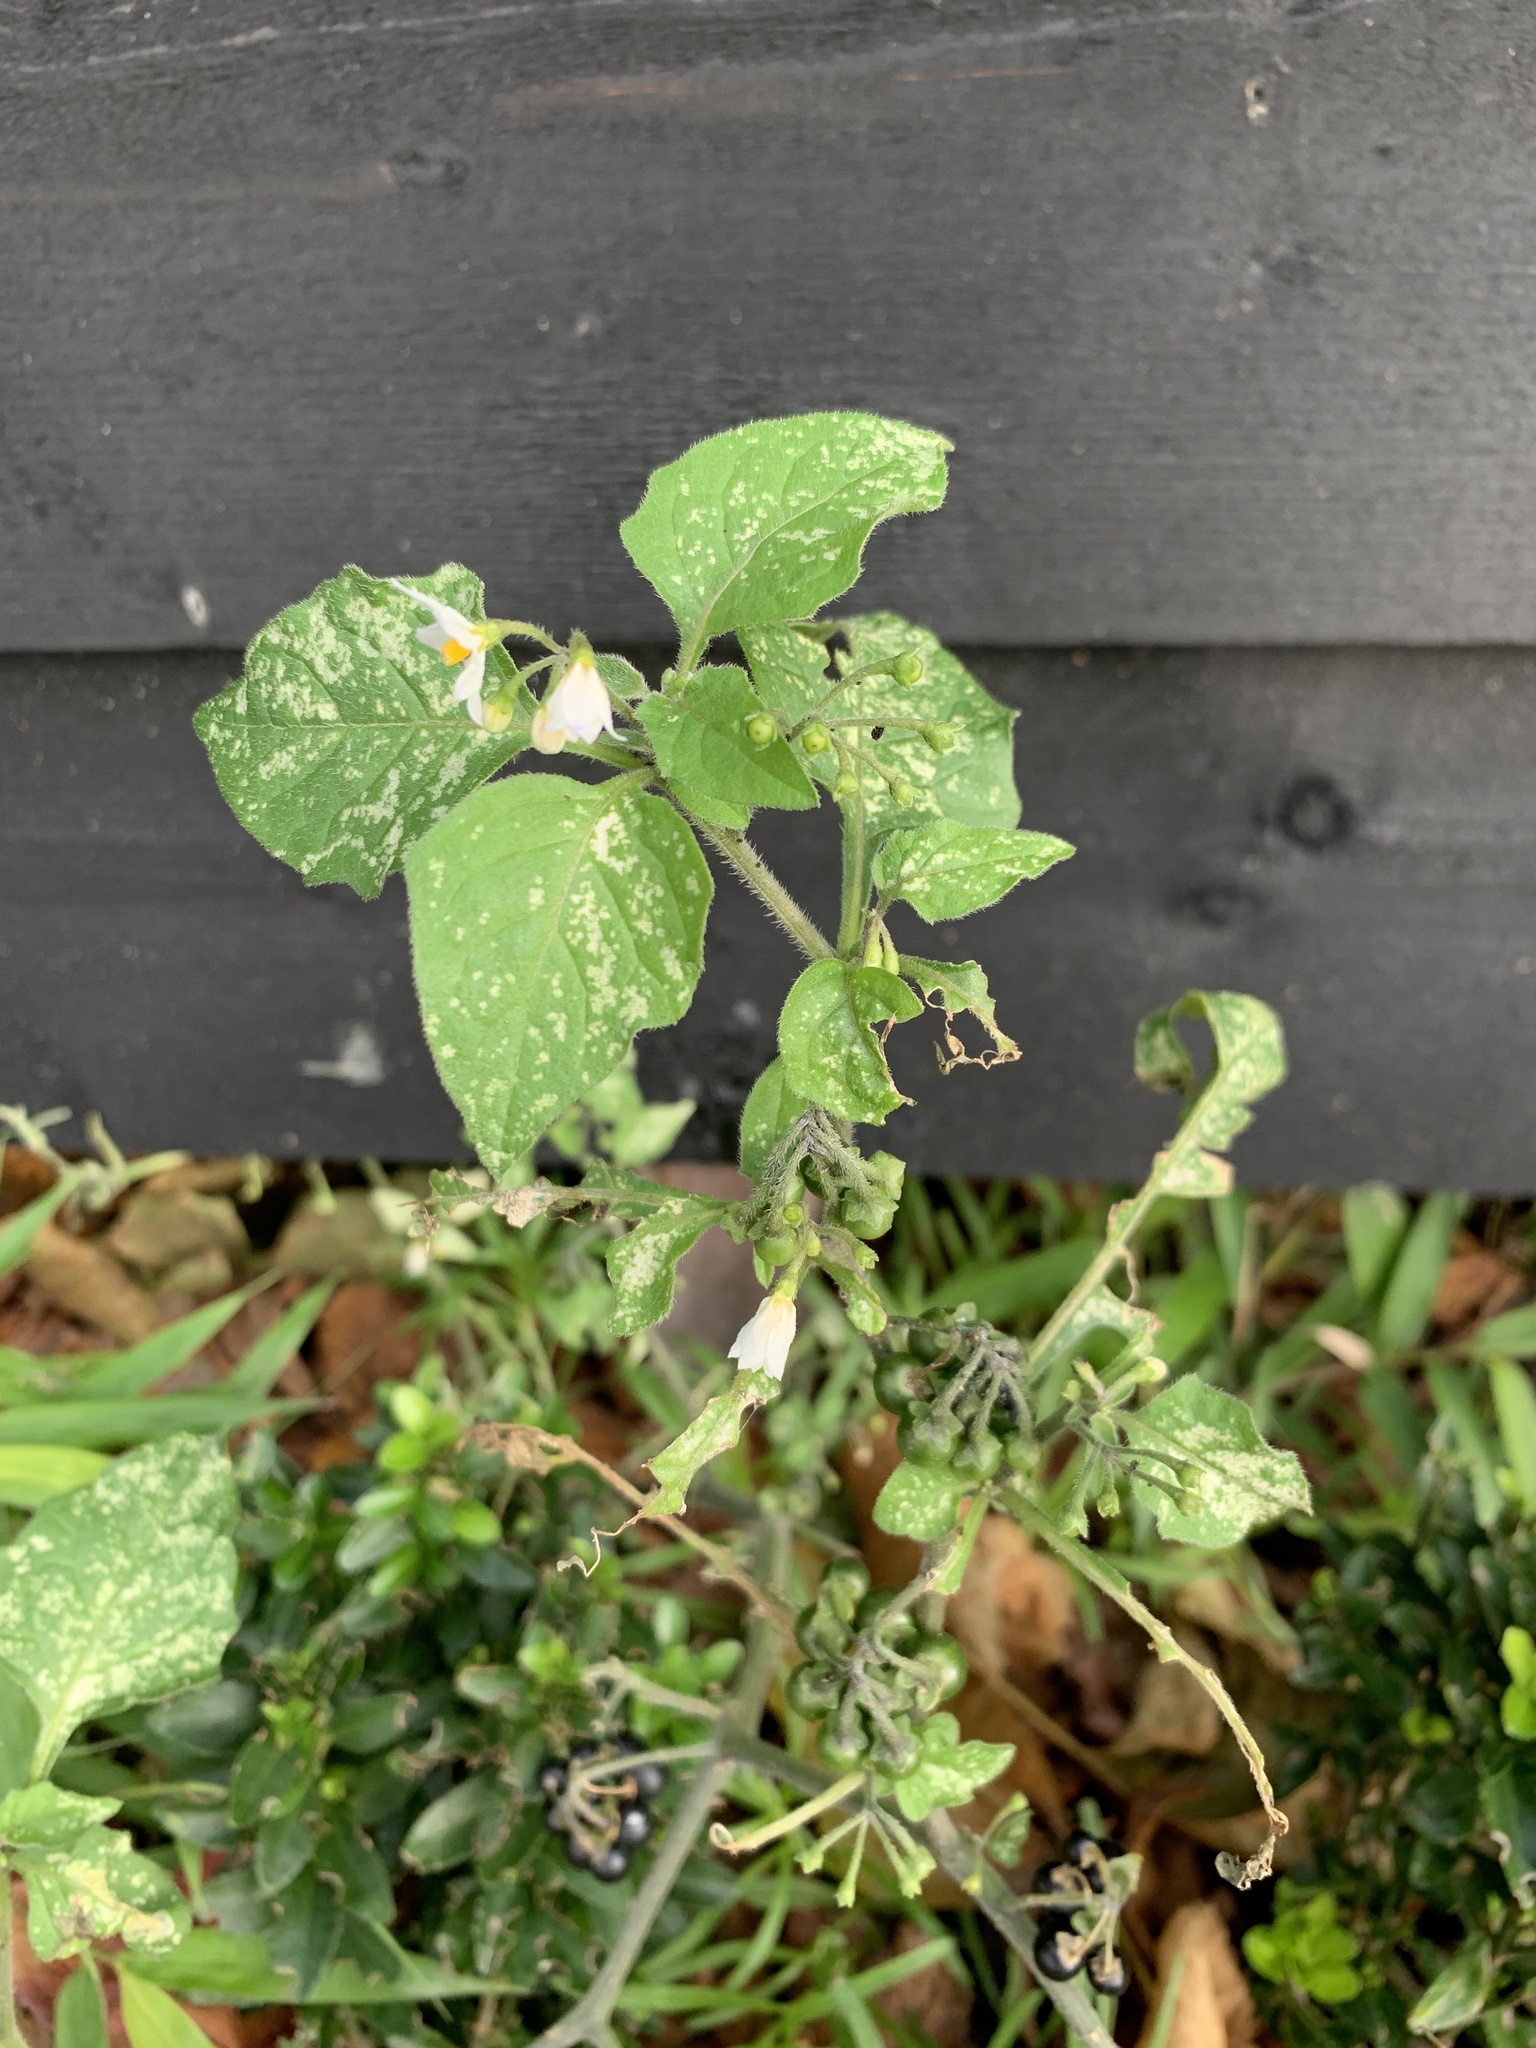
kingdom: Plantae
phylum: Tracheophyta
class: Magnoliopsida
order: Solanales
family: Solanaceae
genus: Solanum
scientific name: Solanum nigrum
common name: Black nightshade
